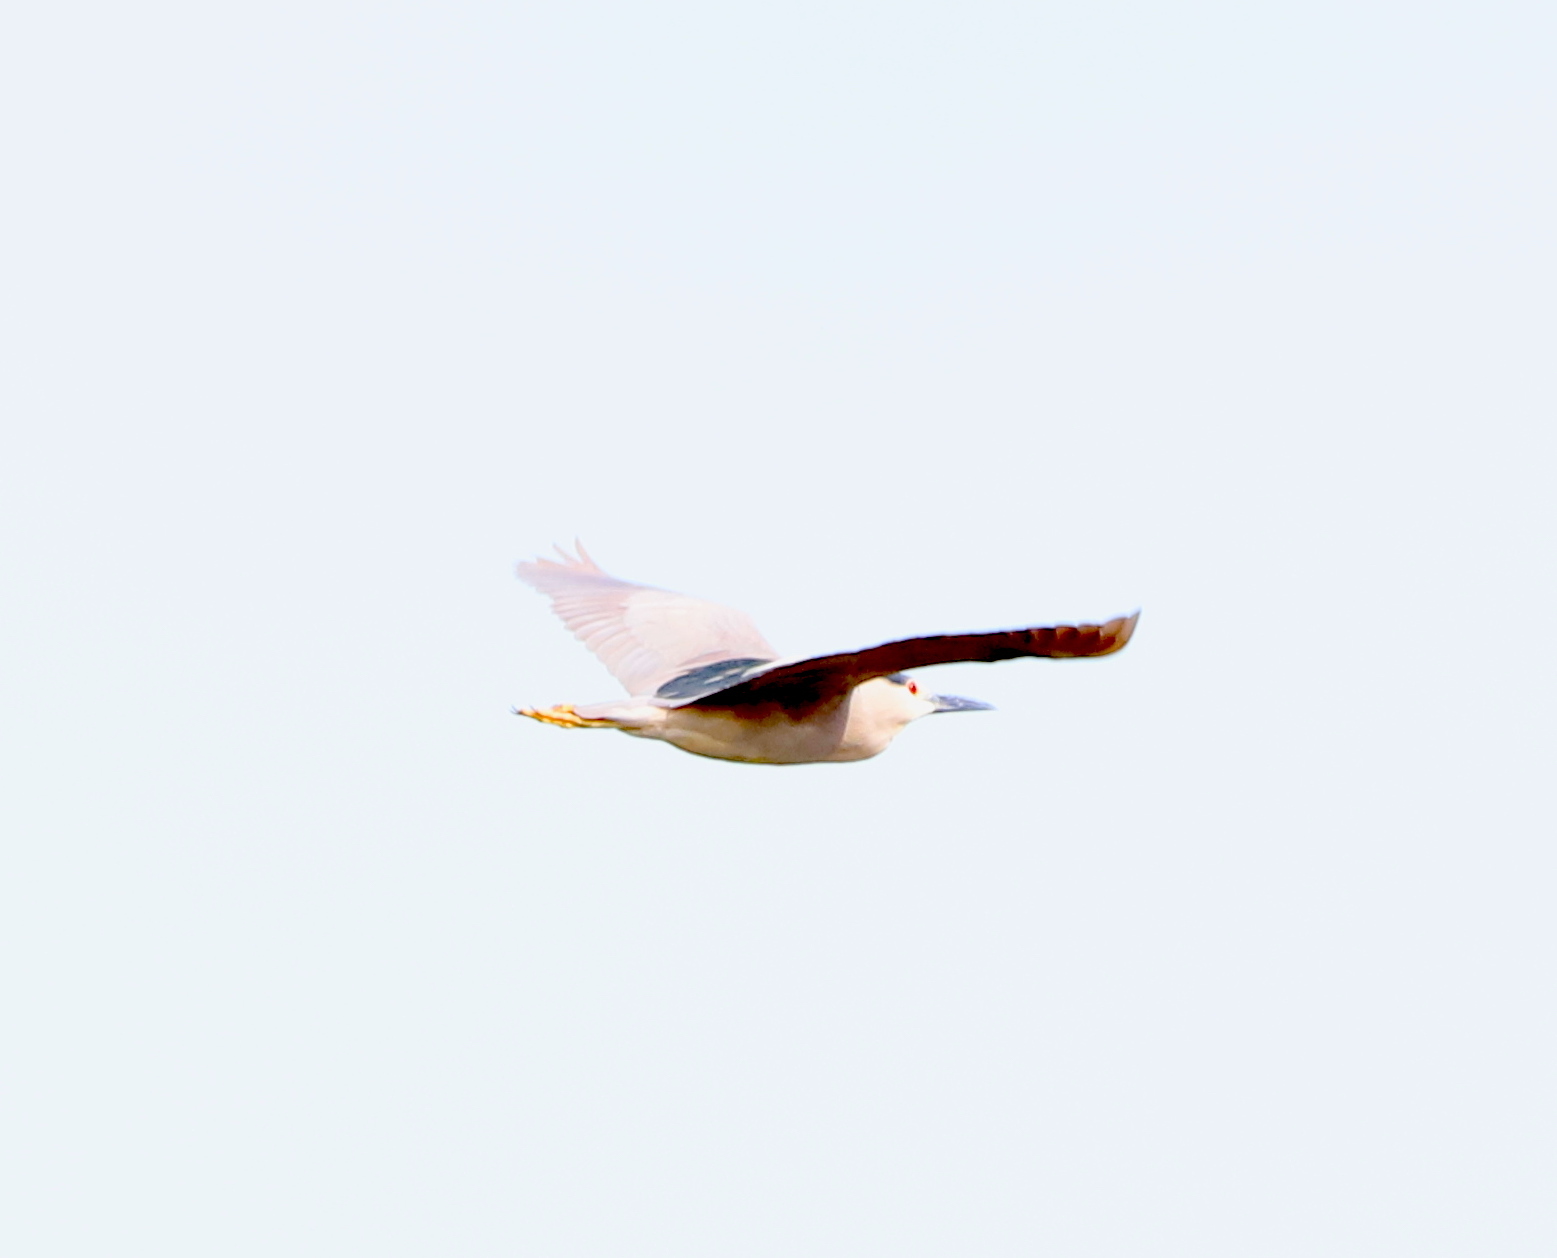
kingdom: Animalia
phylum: Chordata
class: Aves
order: Pelecaniformes
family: Ardeidae
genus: Nycticorax
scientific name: Nycticorax nycticorax
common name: Black-crowned night heron
